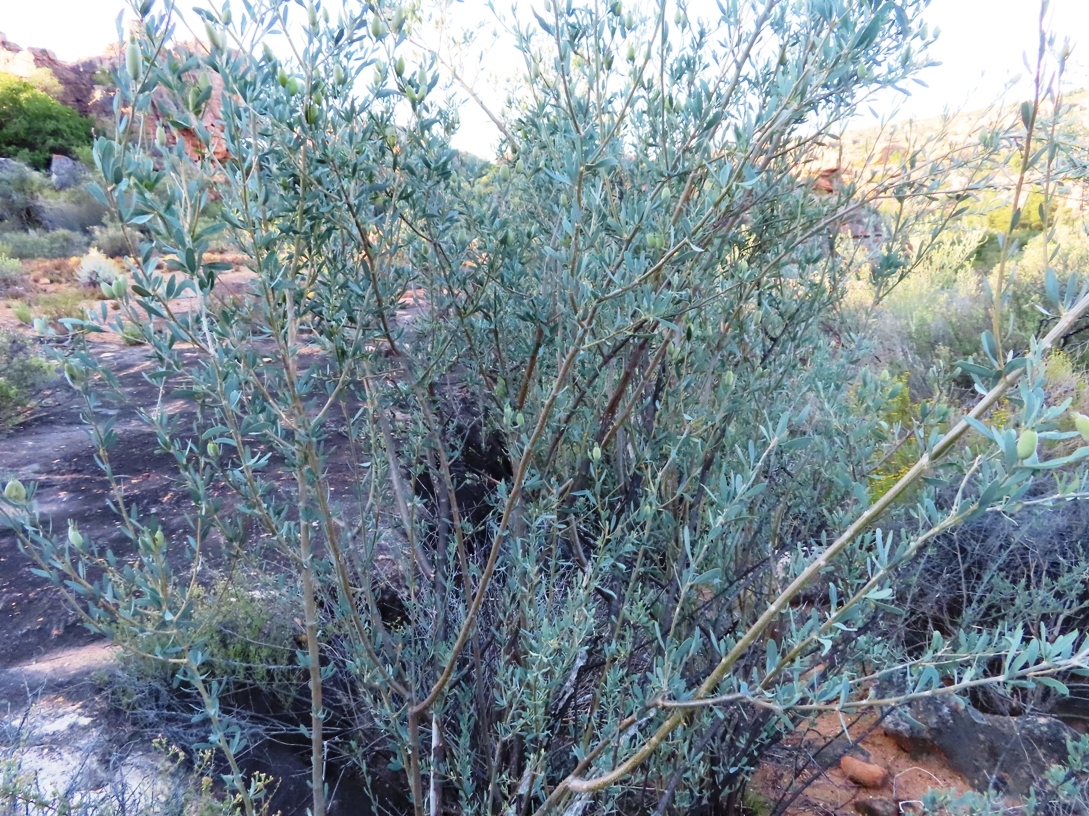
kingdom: Plantae
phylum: Tracheophyta
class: Magnoliopsida
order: Solanales
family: Montiniaceae
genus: Montinia
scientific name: Montinia caryophyllacea
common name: Wild clove-bush
